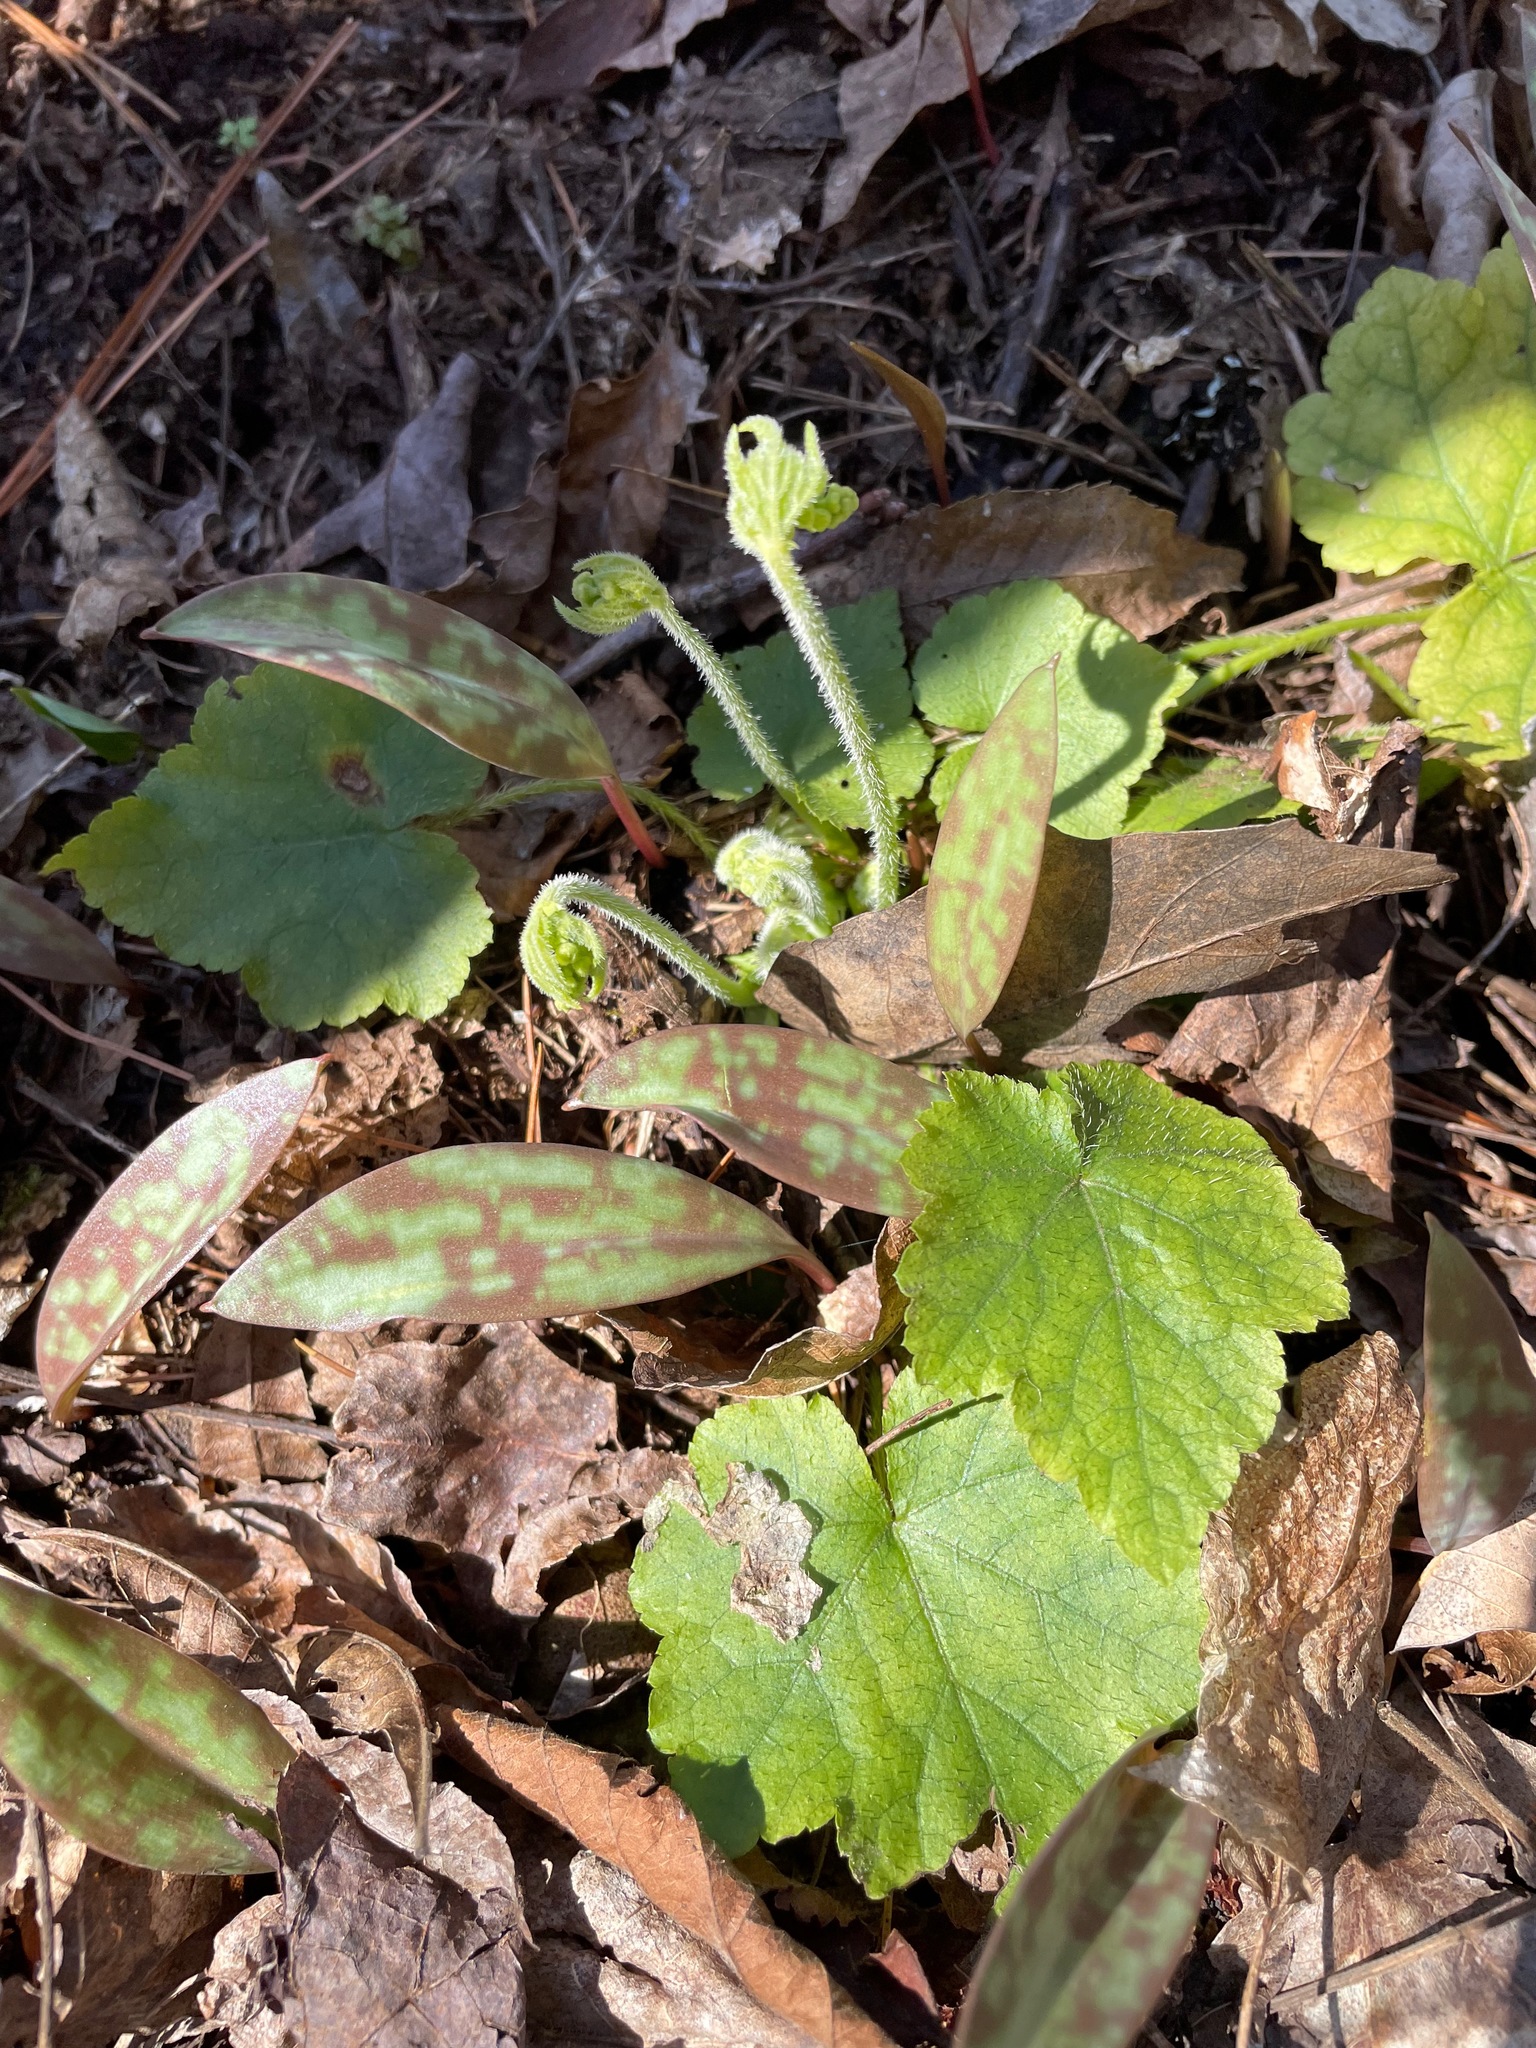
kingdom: Plantae
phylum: Tracheophyta
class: Magnoliopsida
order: Saxifragales
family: Saxifragaceae
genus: Mitella
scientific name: Mitella diphylla
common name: Coolwort
